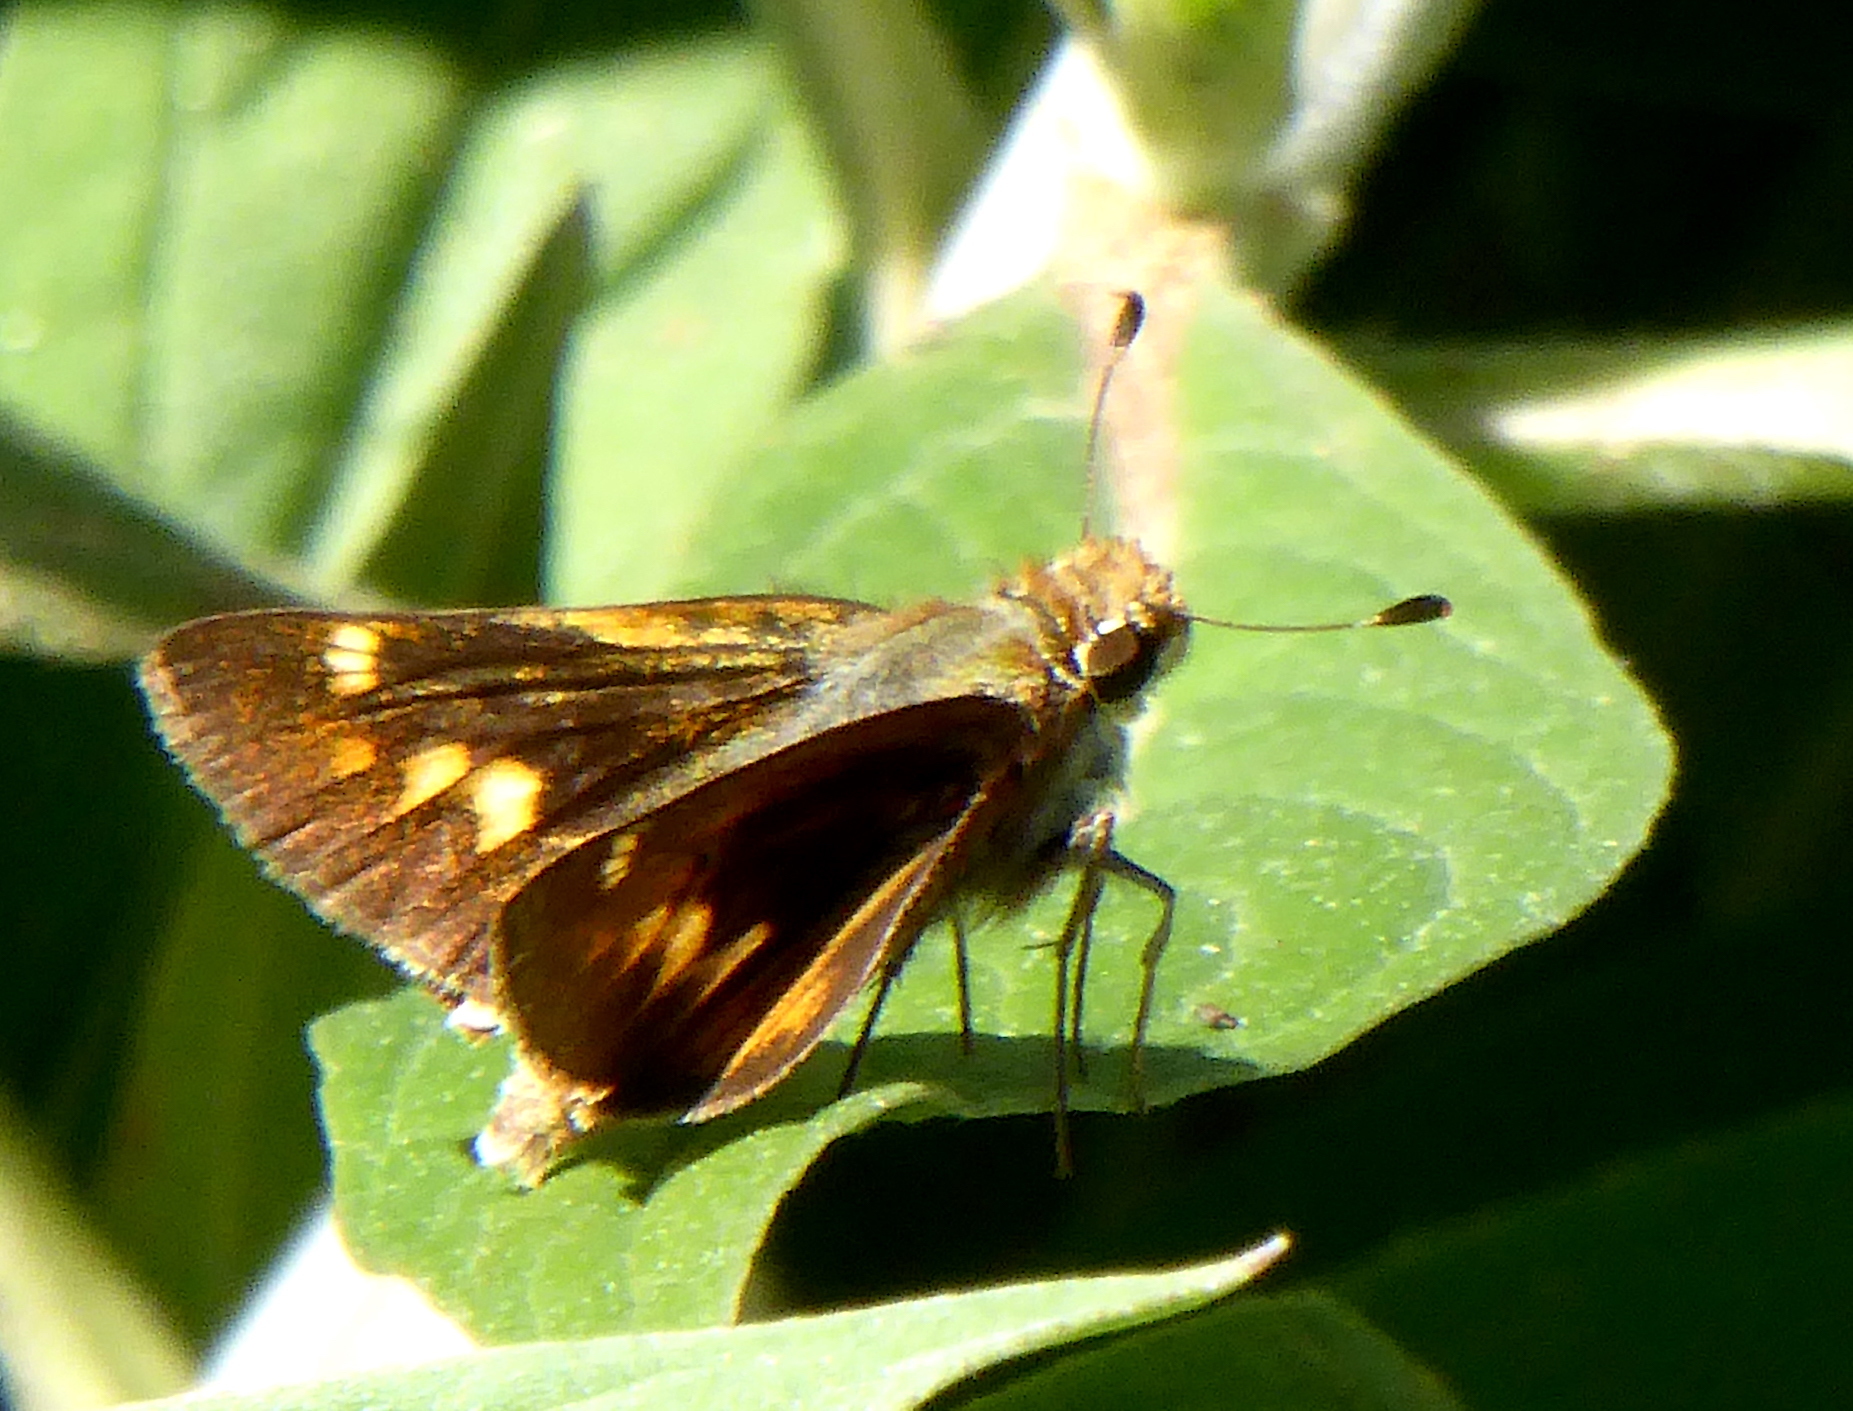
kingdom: Animalia
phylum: Arthropoda
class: Insecta
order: Lepidoptera
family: Hesperiidae
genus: Lon
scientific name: Lon melane
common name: Umber skipper
